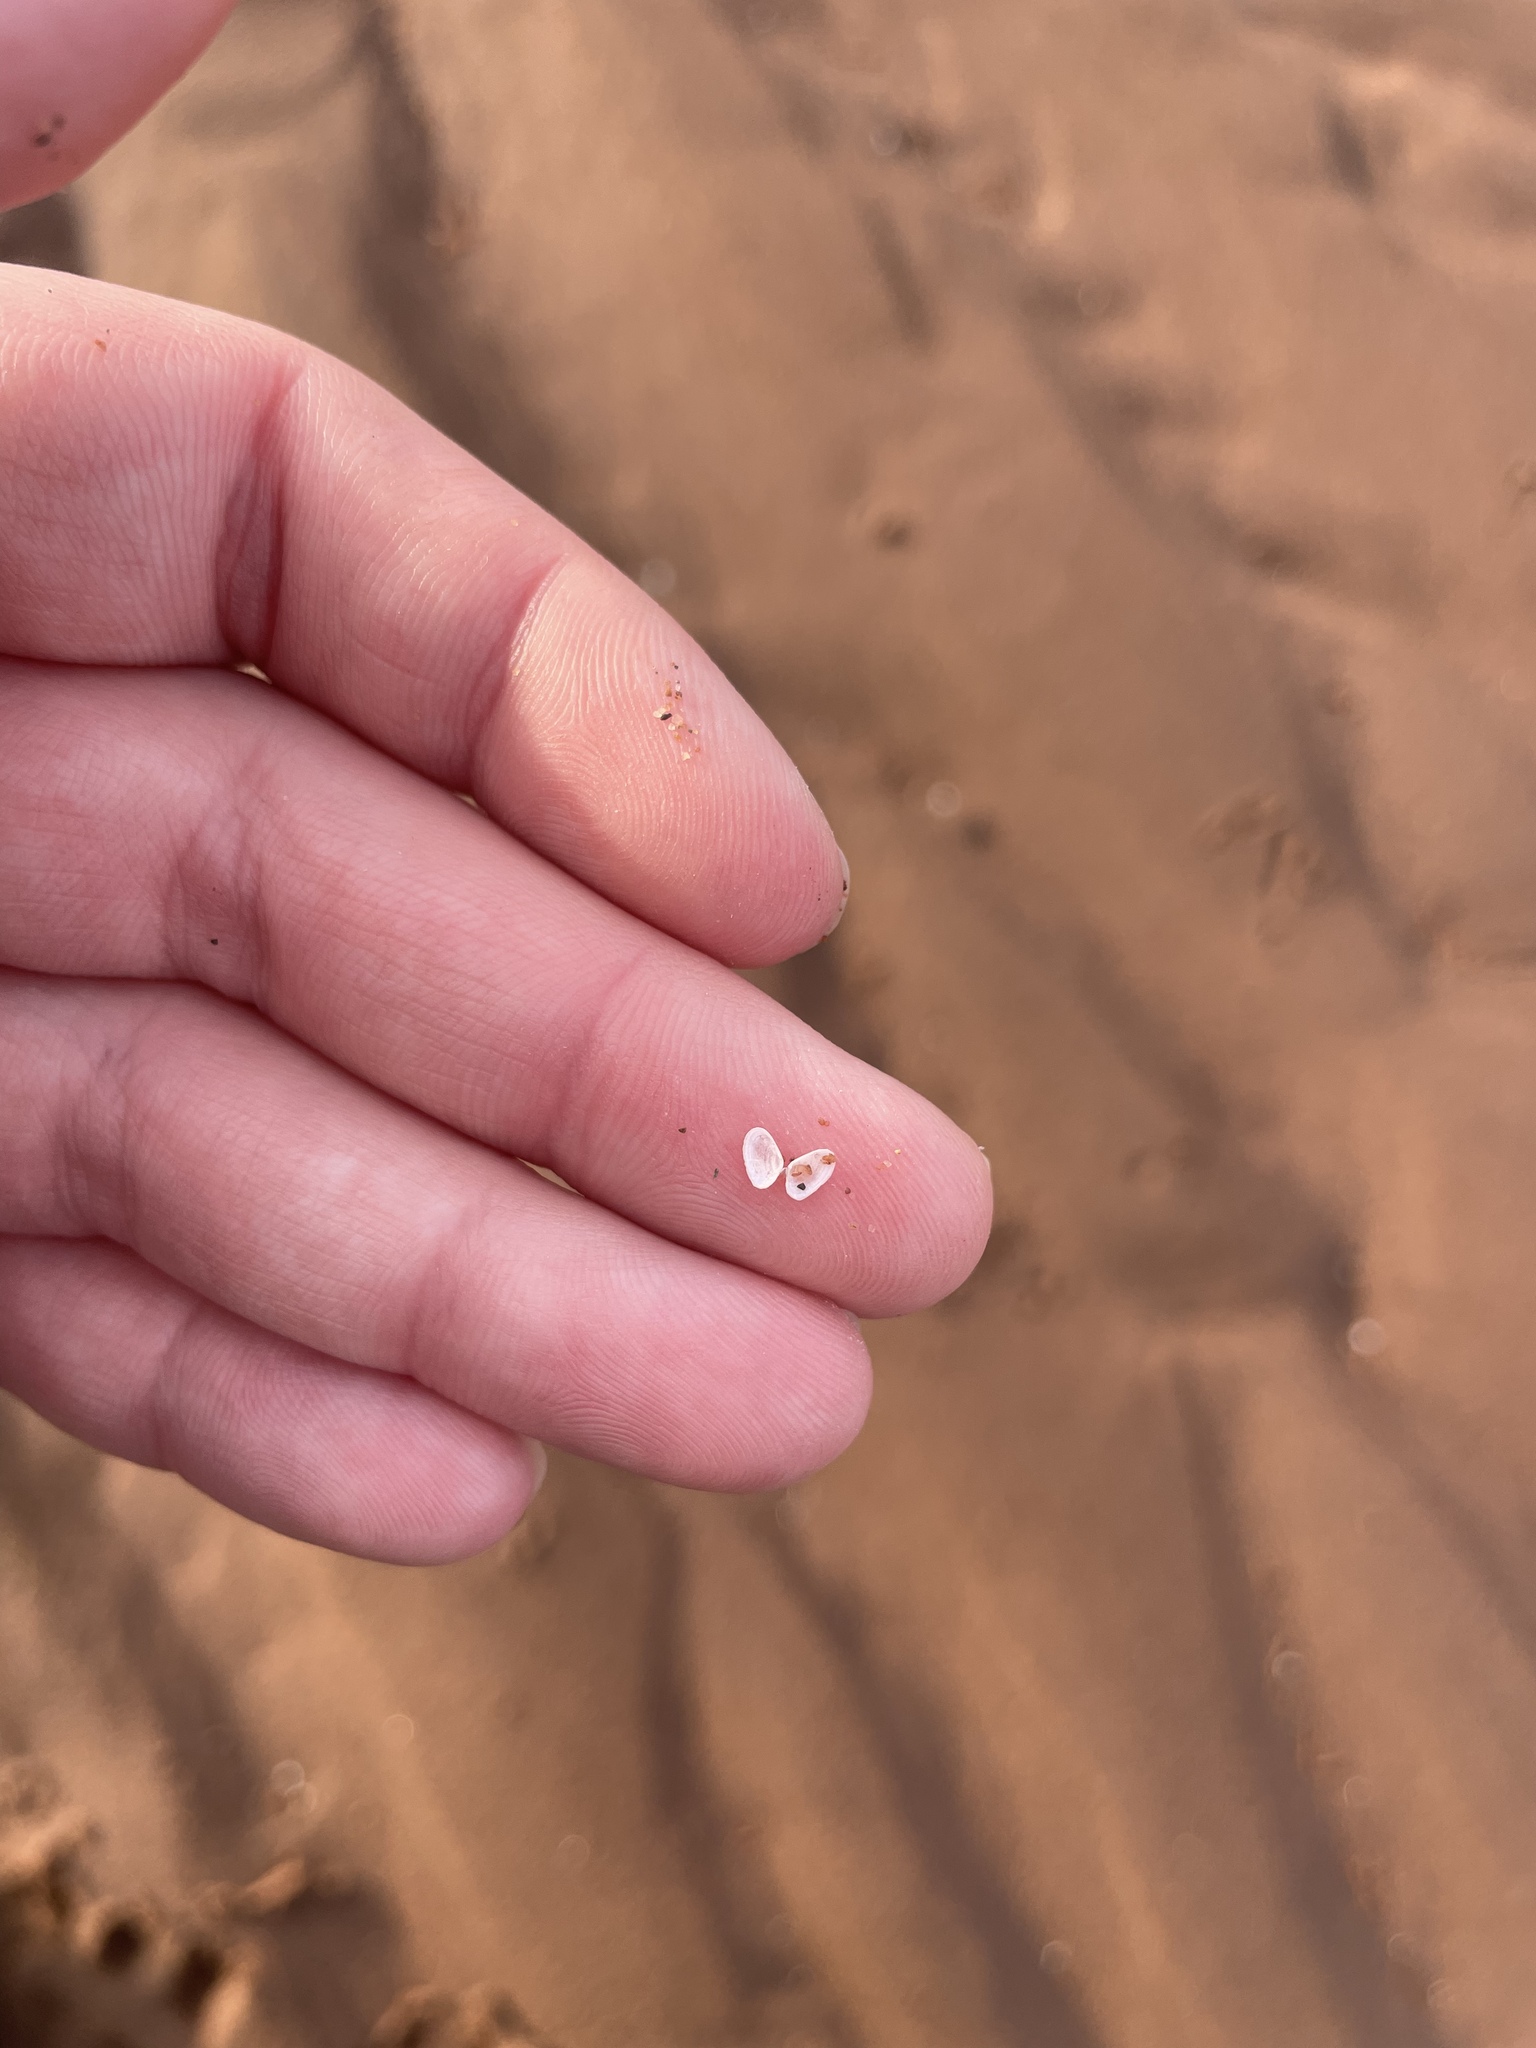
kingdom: Animalia
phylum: Mollusca
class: Bivalvia
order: Cardiida
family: Tellinidae
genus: Ameritella
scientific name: Ameritella agilis
